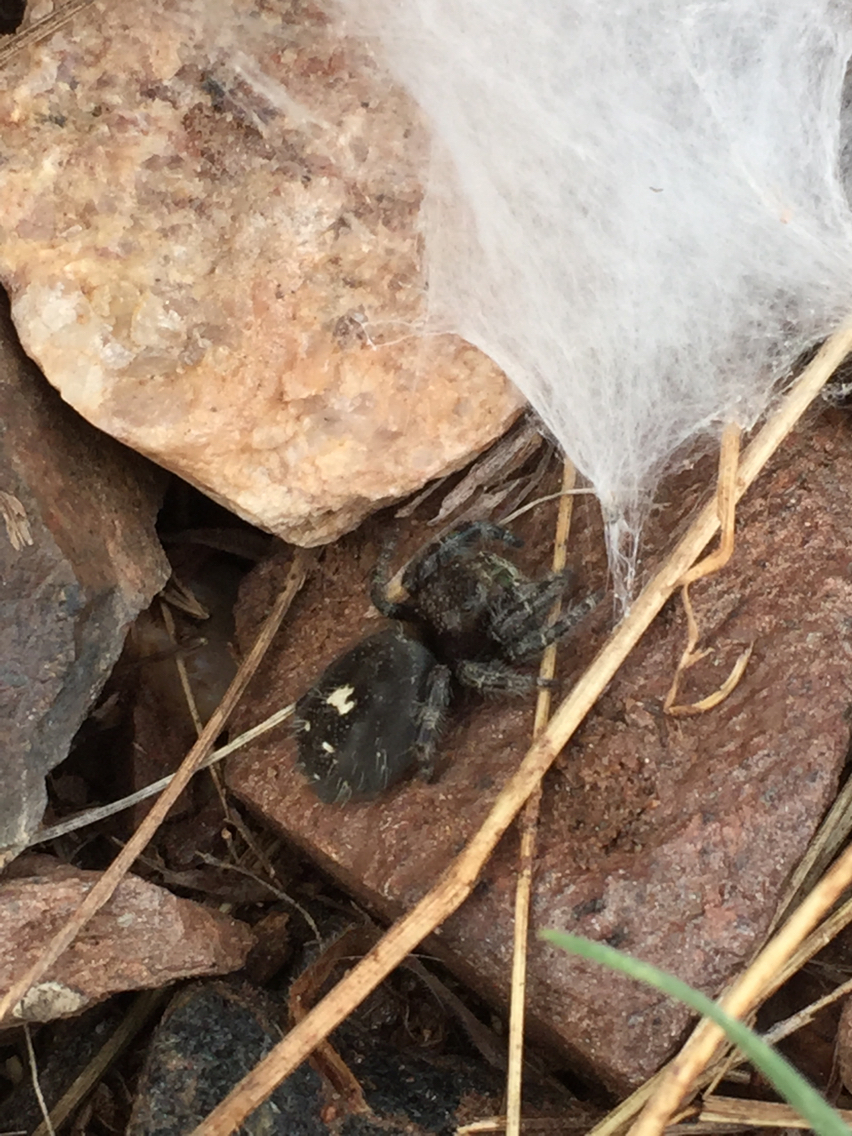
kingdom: Animalia
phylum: Arthropoda
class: Arachnida
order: Araneae
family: Salticidae
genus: Phidippus
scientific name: Phidippus audax
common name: Bold jumper
